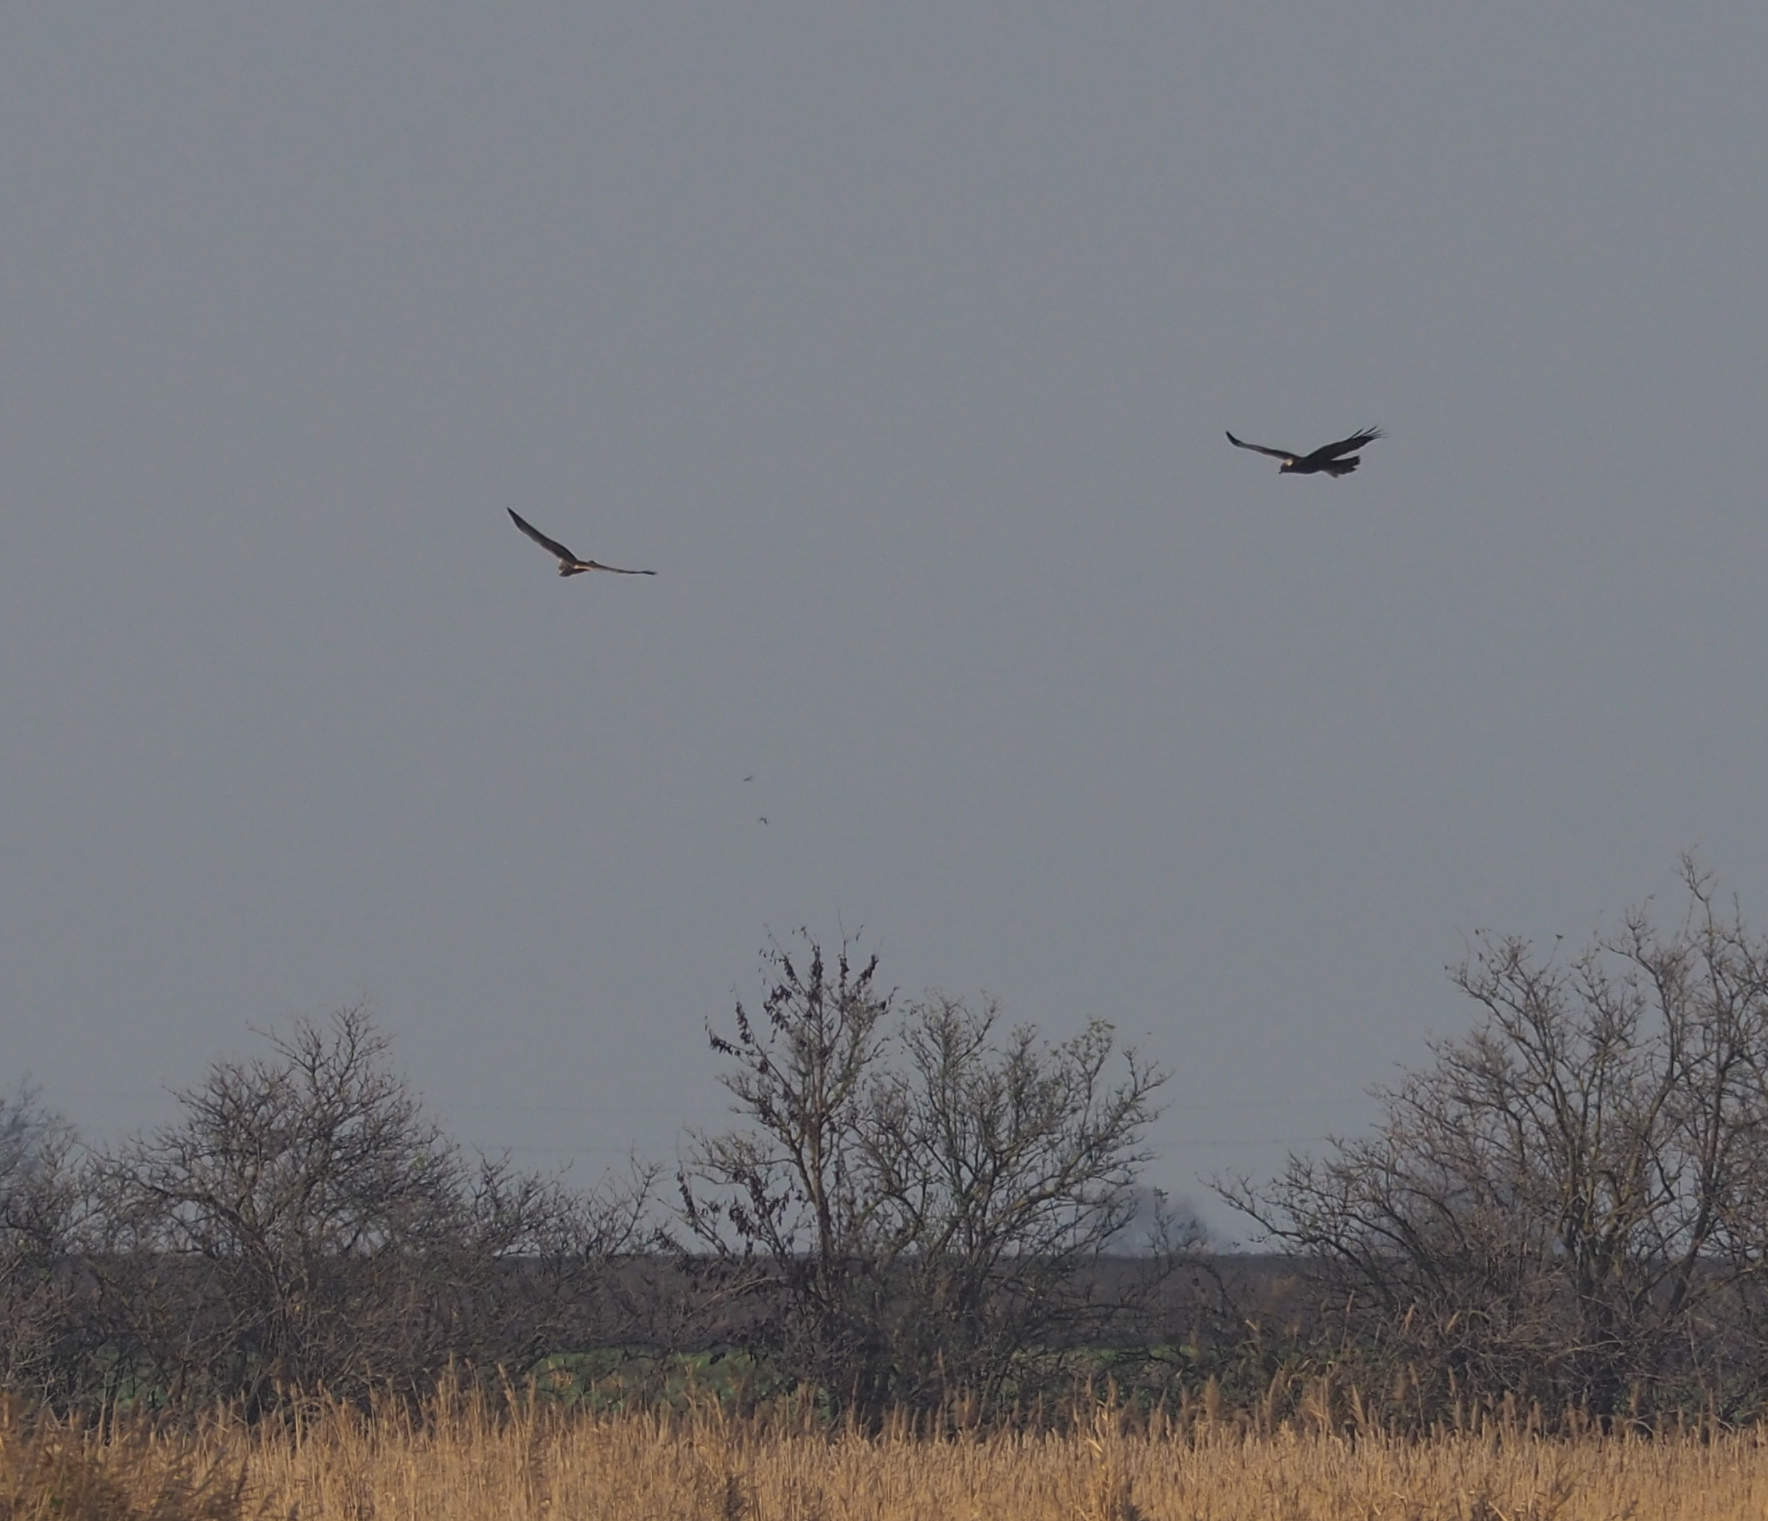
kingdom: Animalia
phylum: Chordata
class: Aves
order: Accipitriformes
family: Accipitridae
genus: Circus
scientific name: Circus cyaneus
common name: Hen harrier
